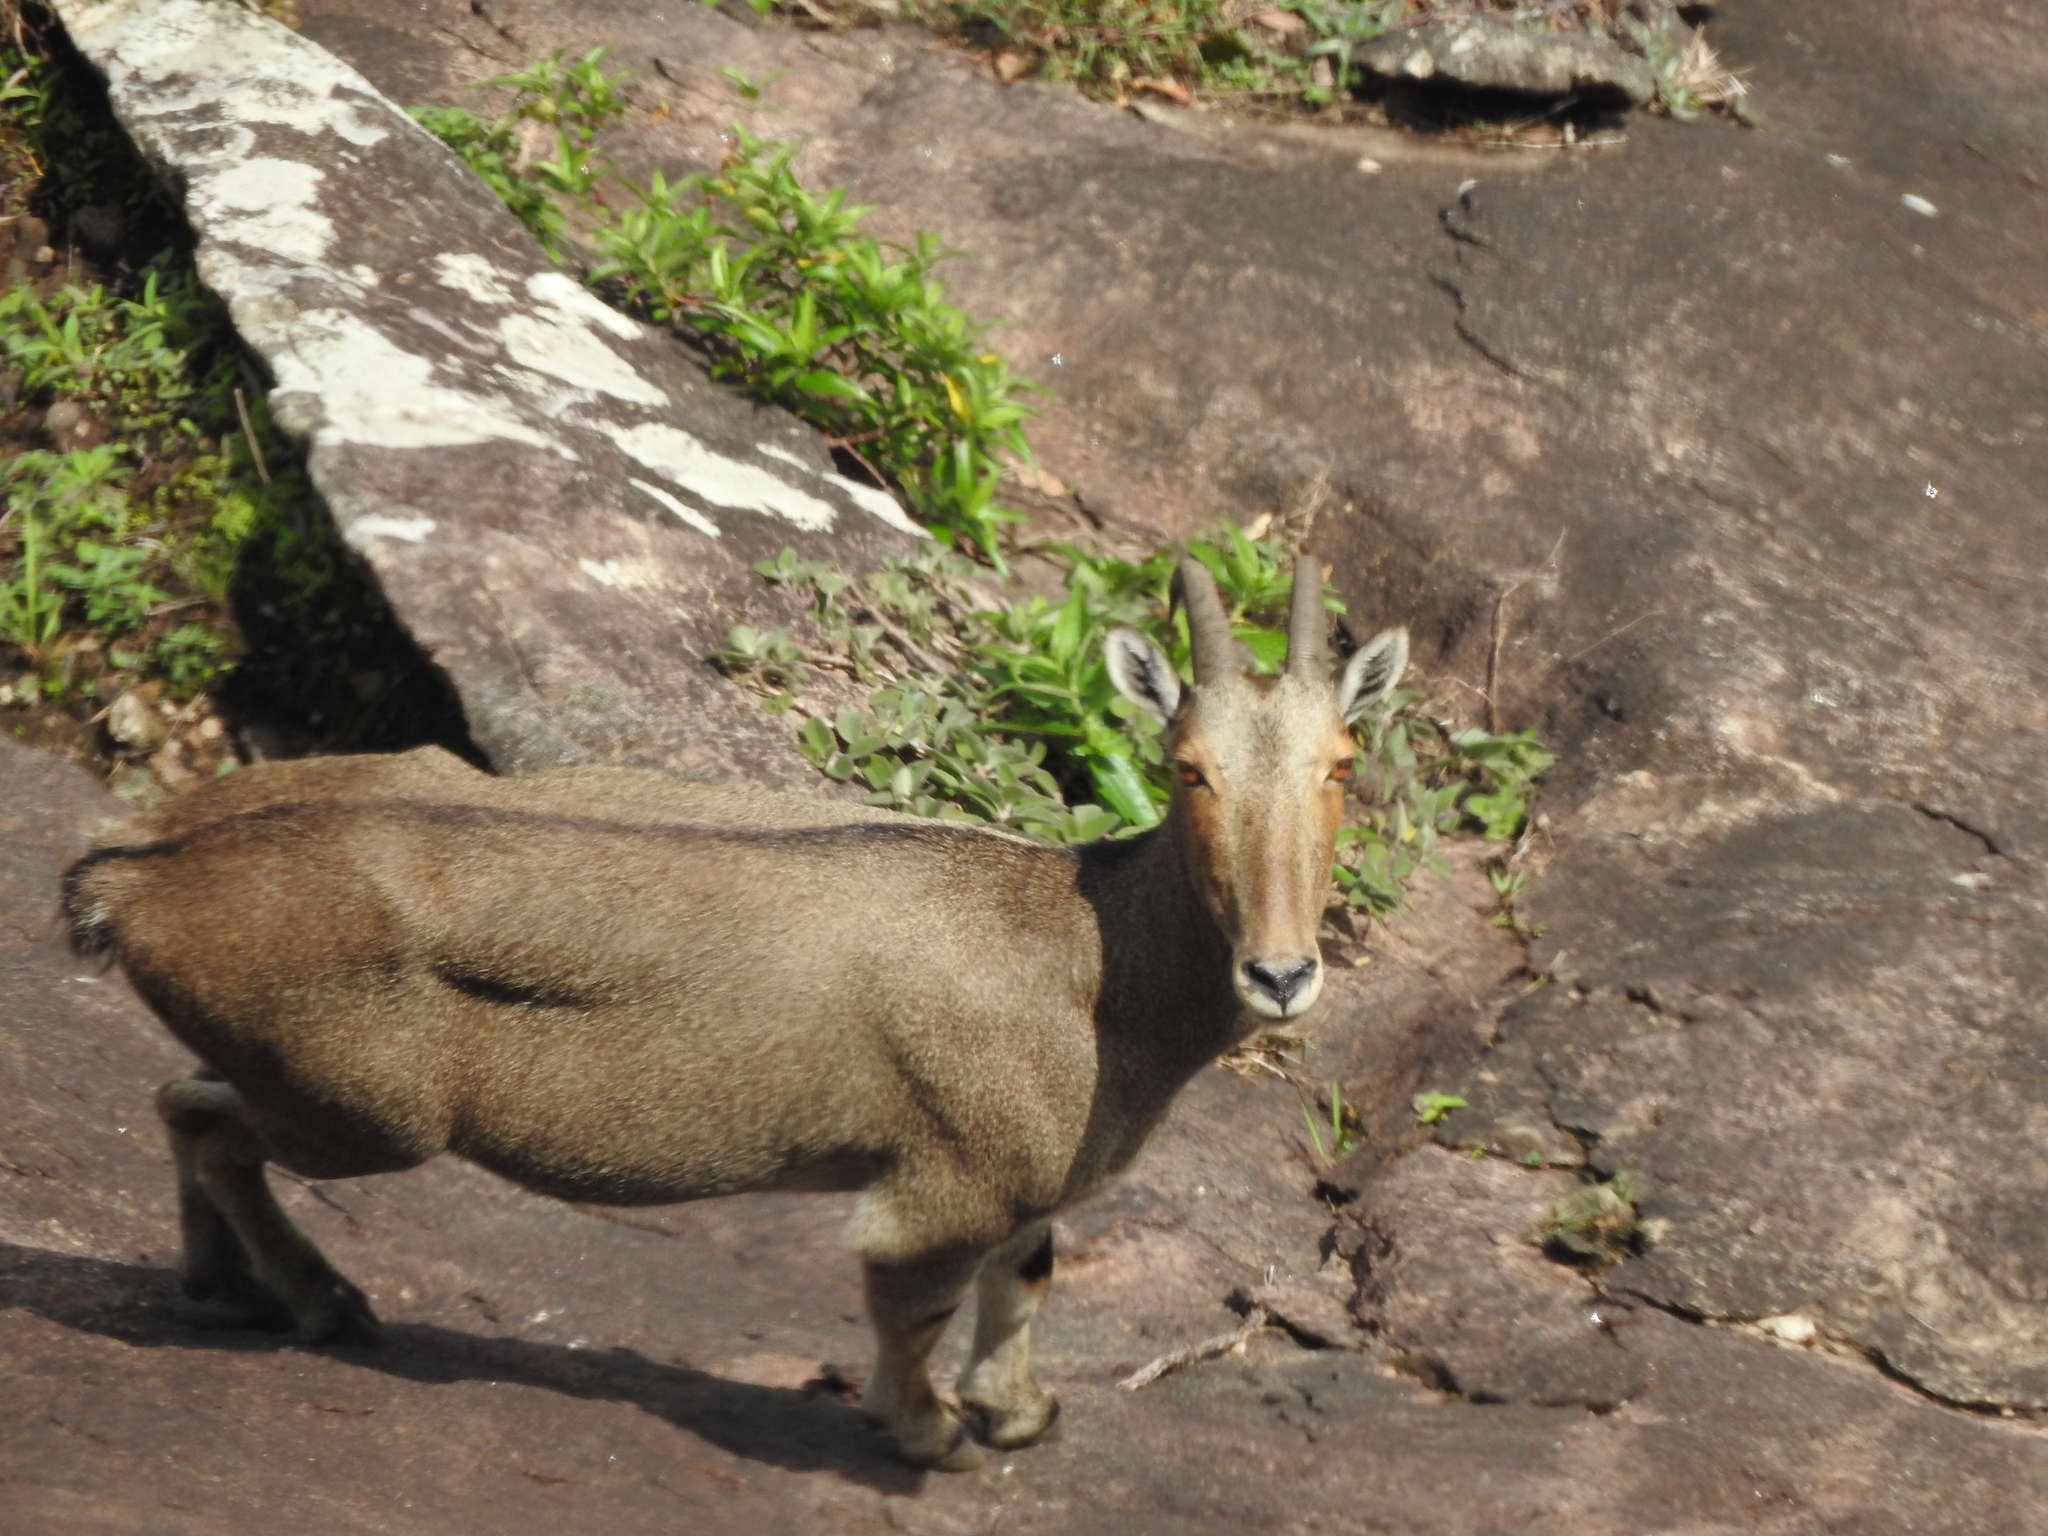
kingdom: Animalia
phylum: Chordata
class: Mammalia
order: Artiodactyla
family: Bovidae
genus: Hemitragus
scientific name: Hemitragus hylocrius
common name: Nilgiri tahr
